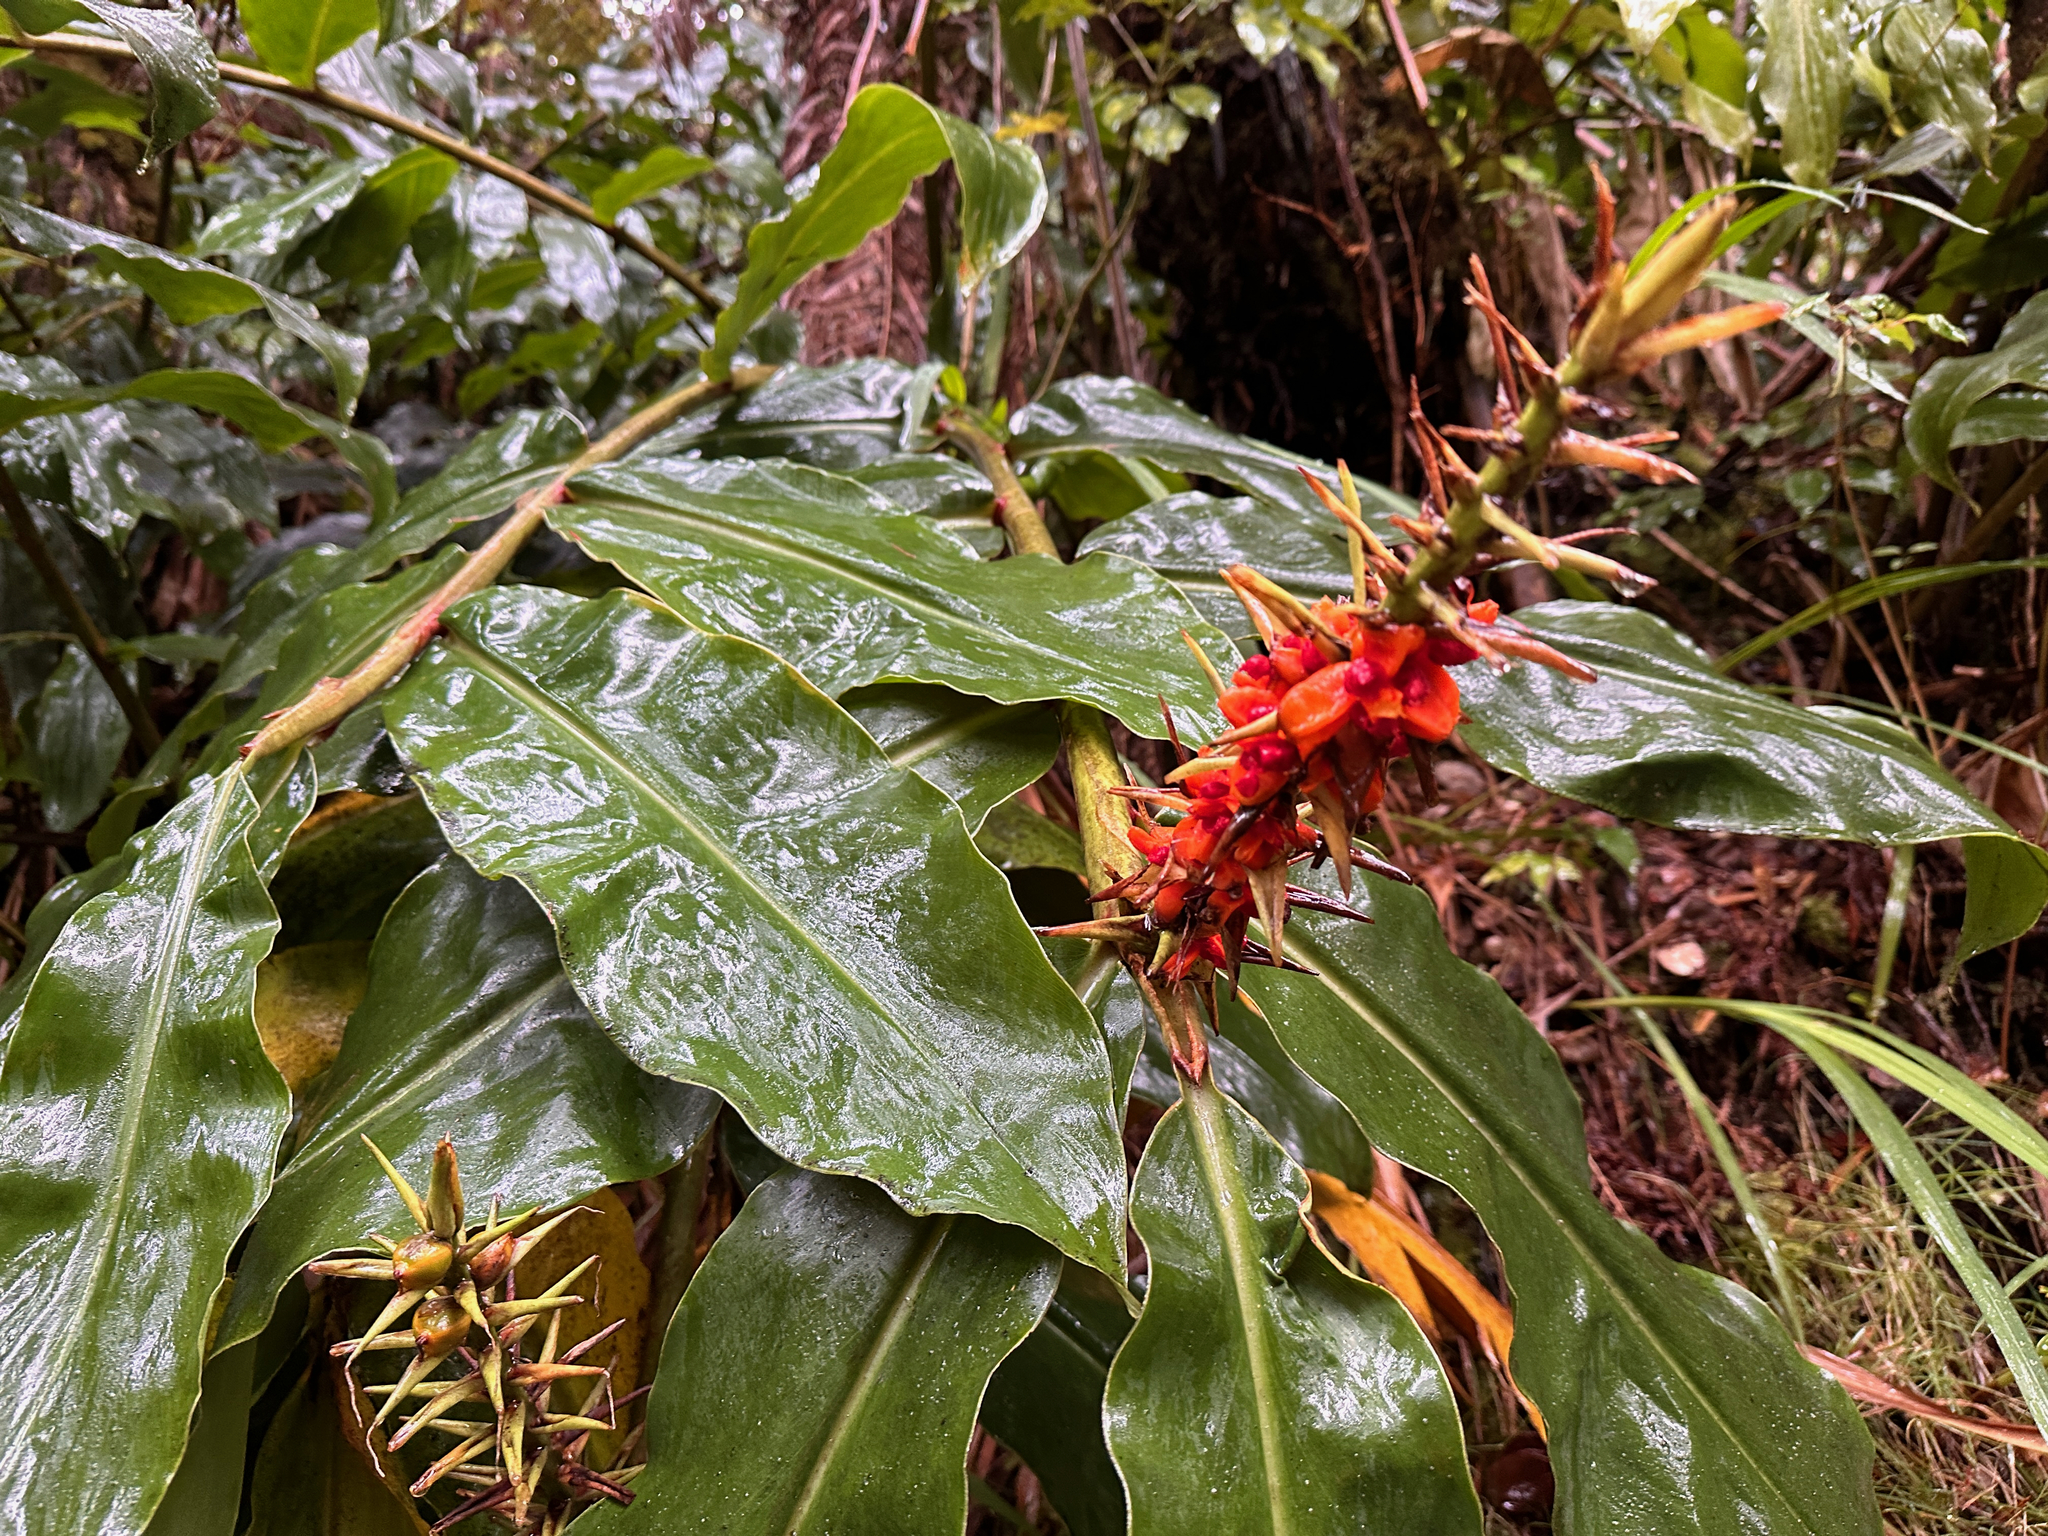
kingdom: Plantae
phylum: Tracheophyta
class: Liliopsida
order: Zingiberales
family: Zingiberaceae
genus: Hedychium
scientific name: Hedychium gardnerianum
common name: Himalayan ginger
